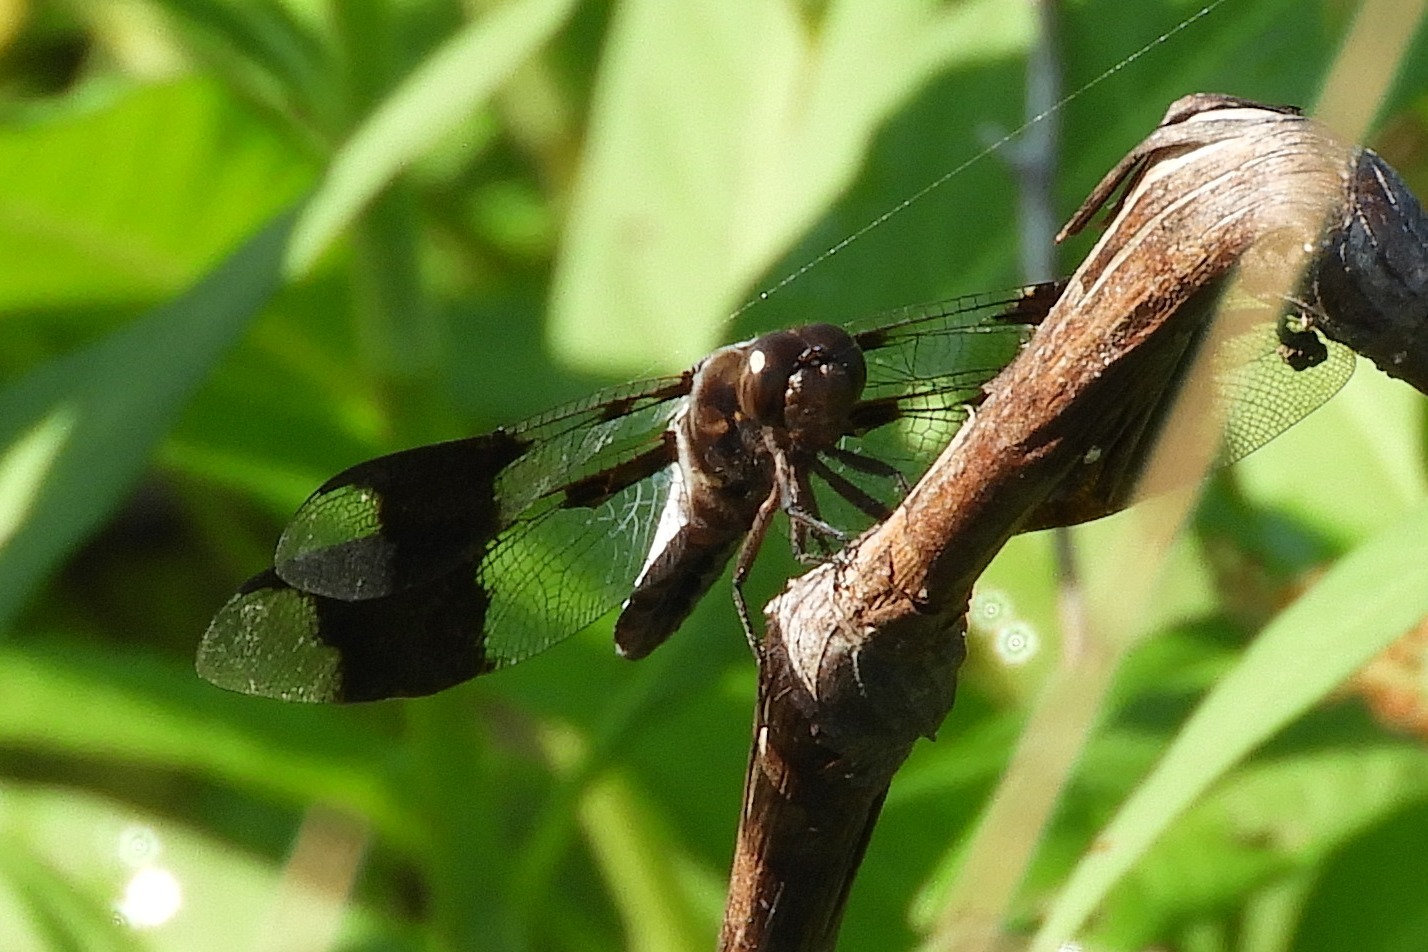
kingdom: Animalia
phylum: Arthropoda
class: Insecta
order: Odonata
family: Libellulidae
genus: Plathemis
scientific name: Plathemis lydia
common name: Common whitetail
